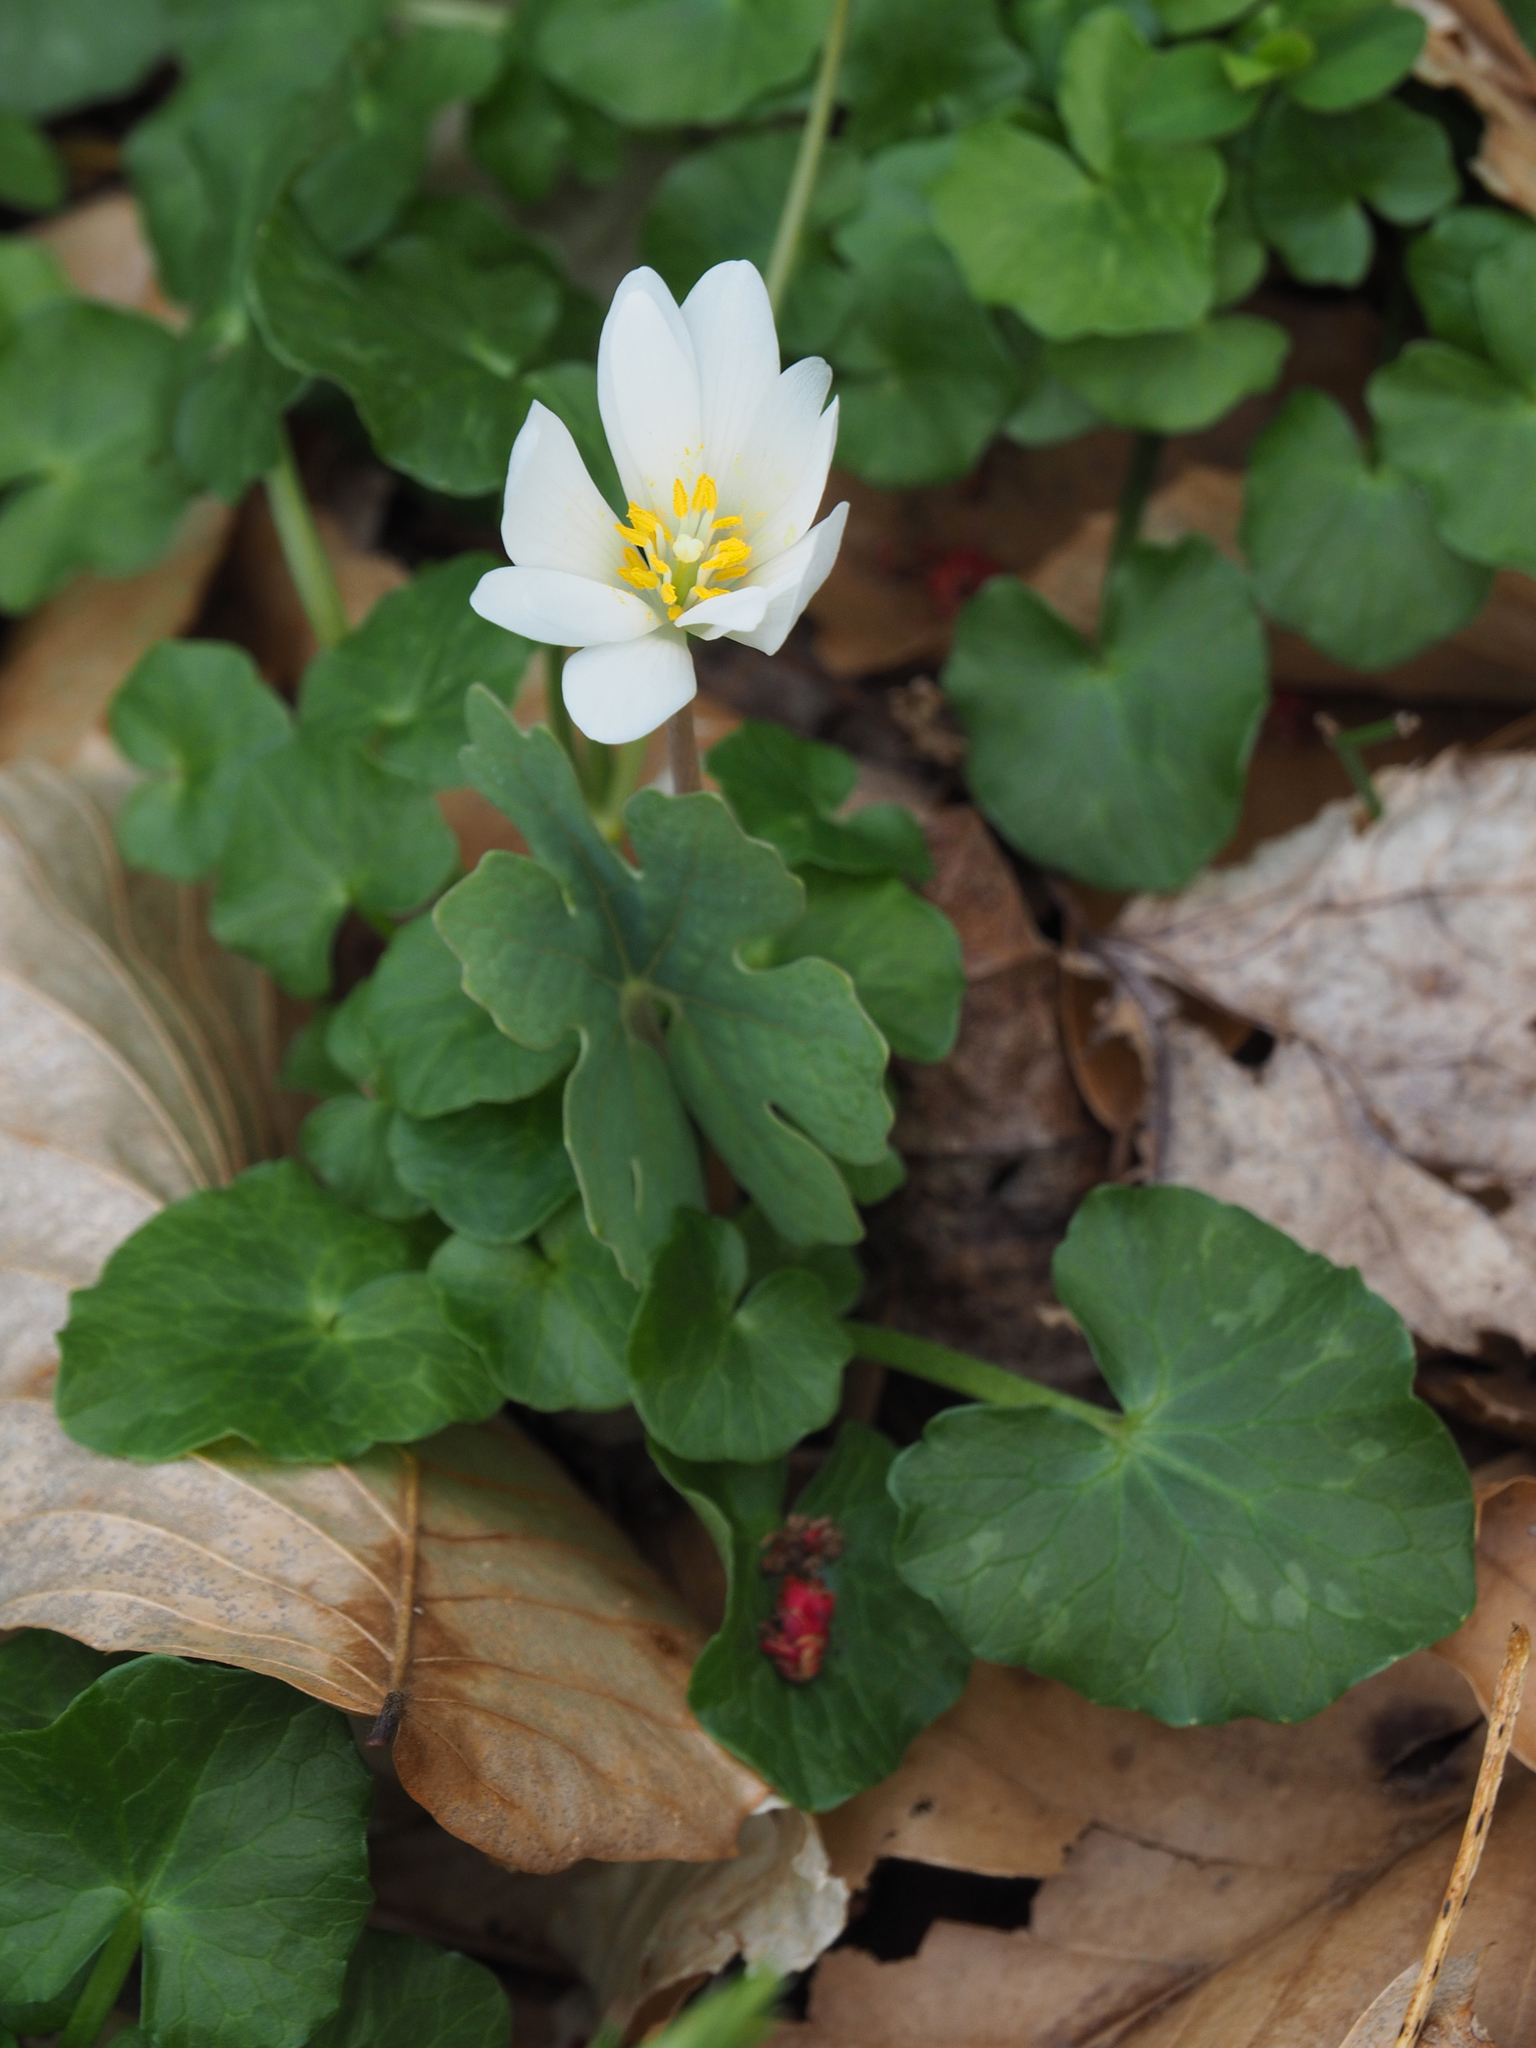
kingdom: Plantae
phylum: Tracheophyta
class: Magnoliopsida
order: Ranunculales
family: Papaveraceae
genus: Sanguinaria
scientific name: Sanguinaria canadensis
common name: Bloodroot
